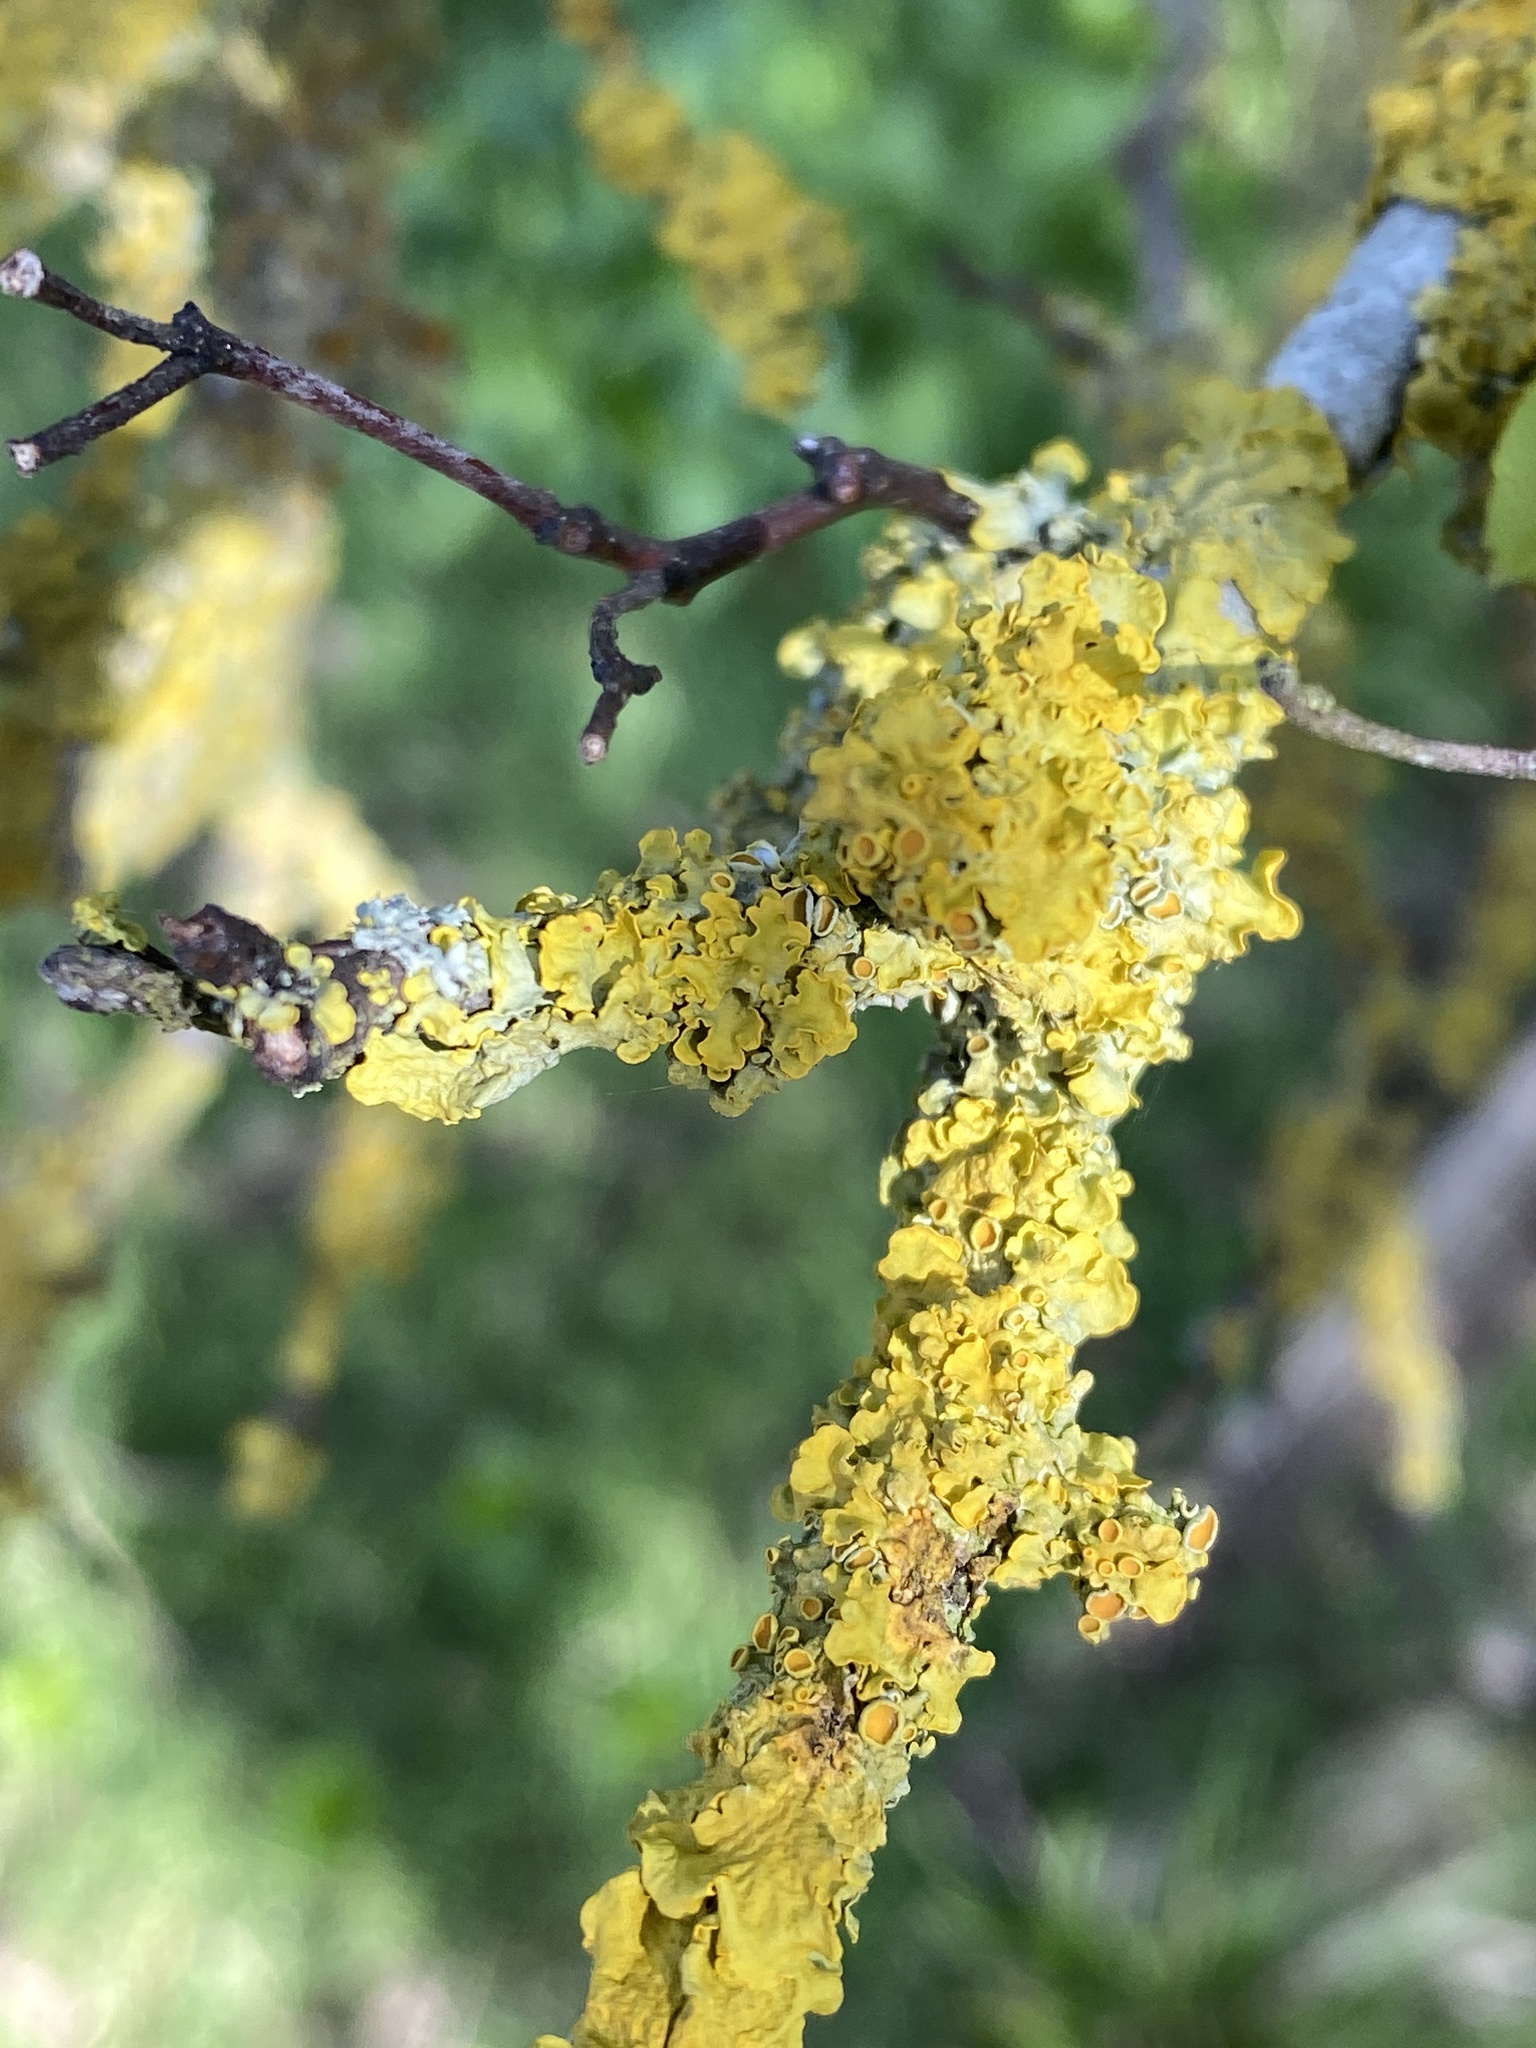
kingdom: Fungi
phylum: Ascomycota
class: Lecanoromycetes
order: Teloschistales
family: Teloschistaceae
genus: Xanthoria
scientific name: Xanthoria parietina
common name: Common orange lichen
